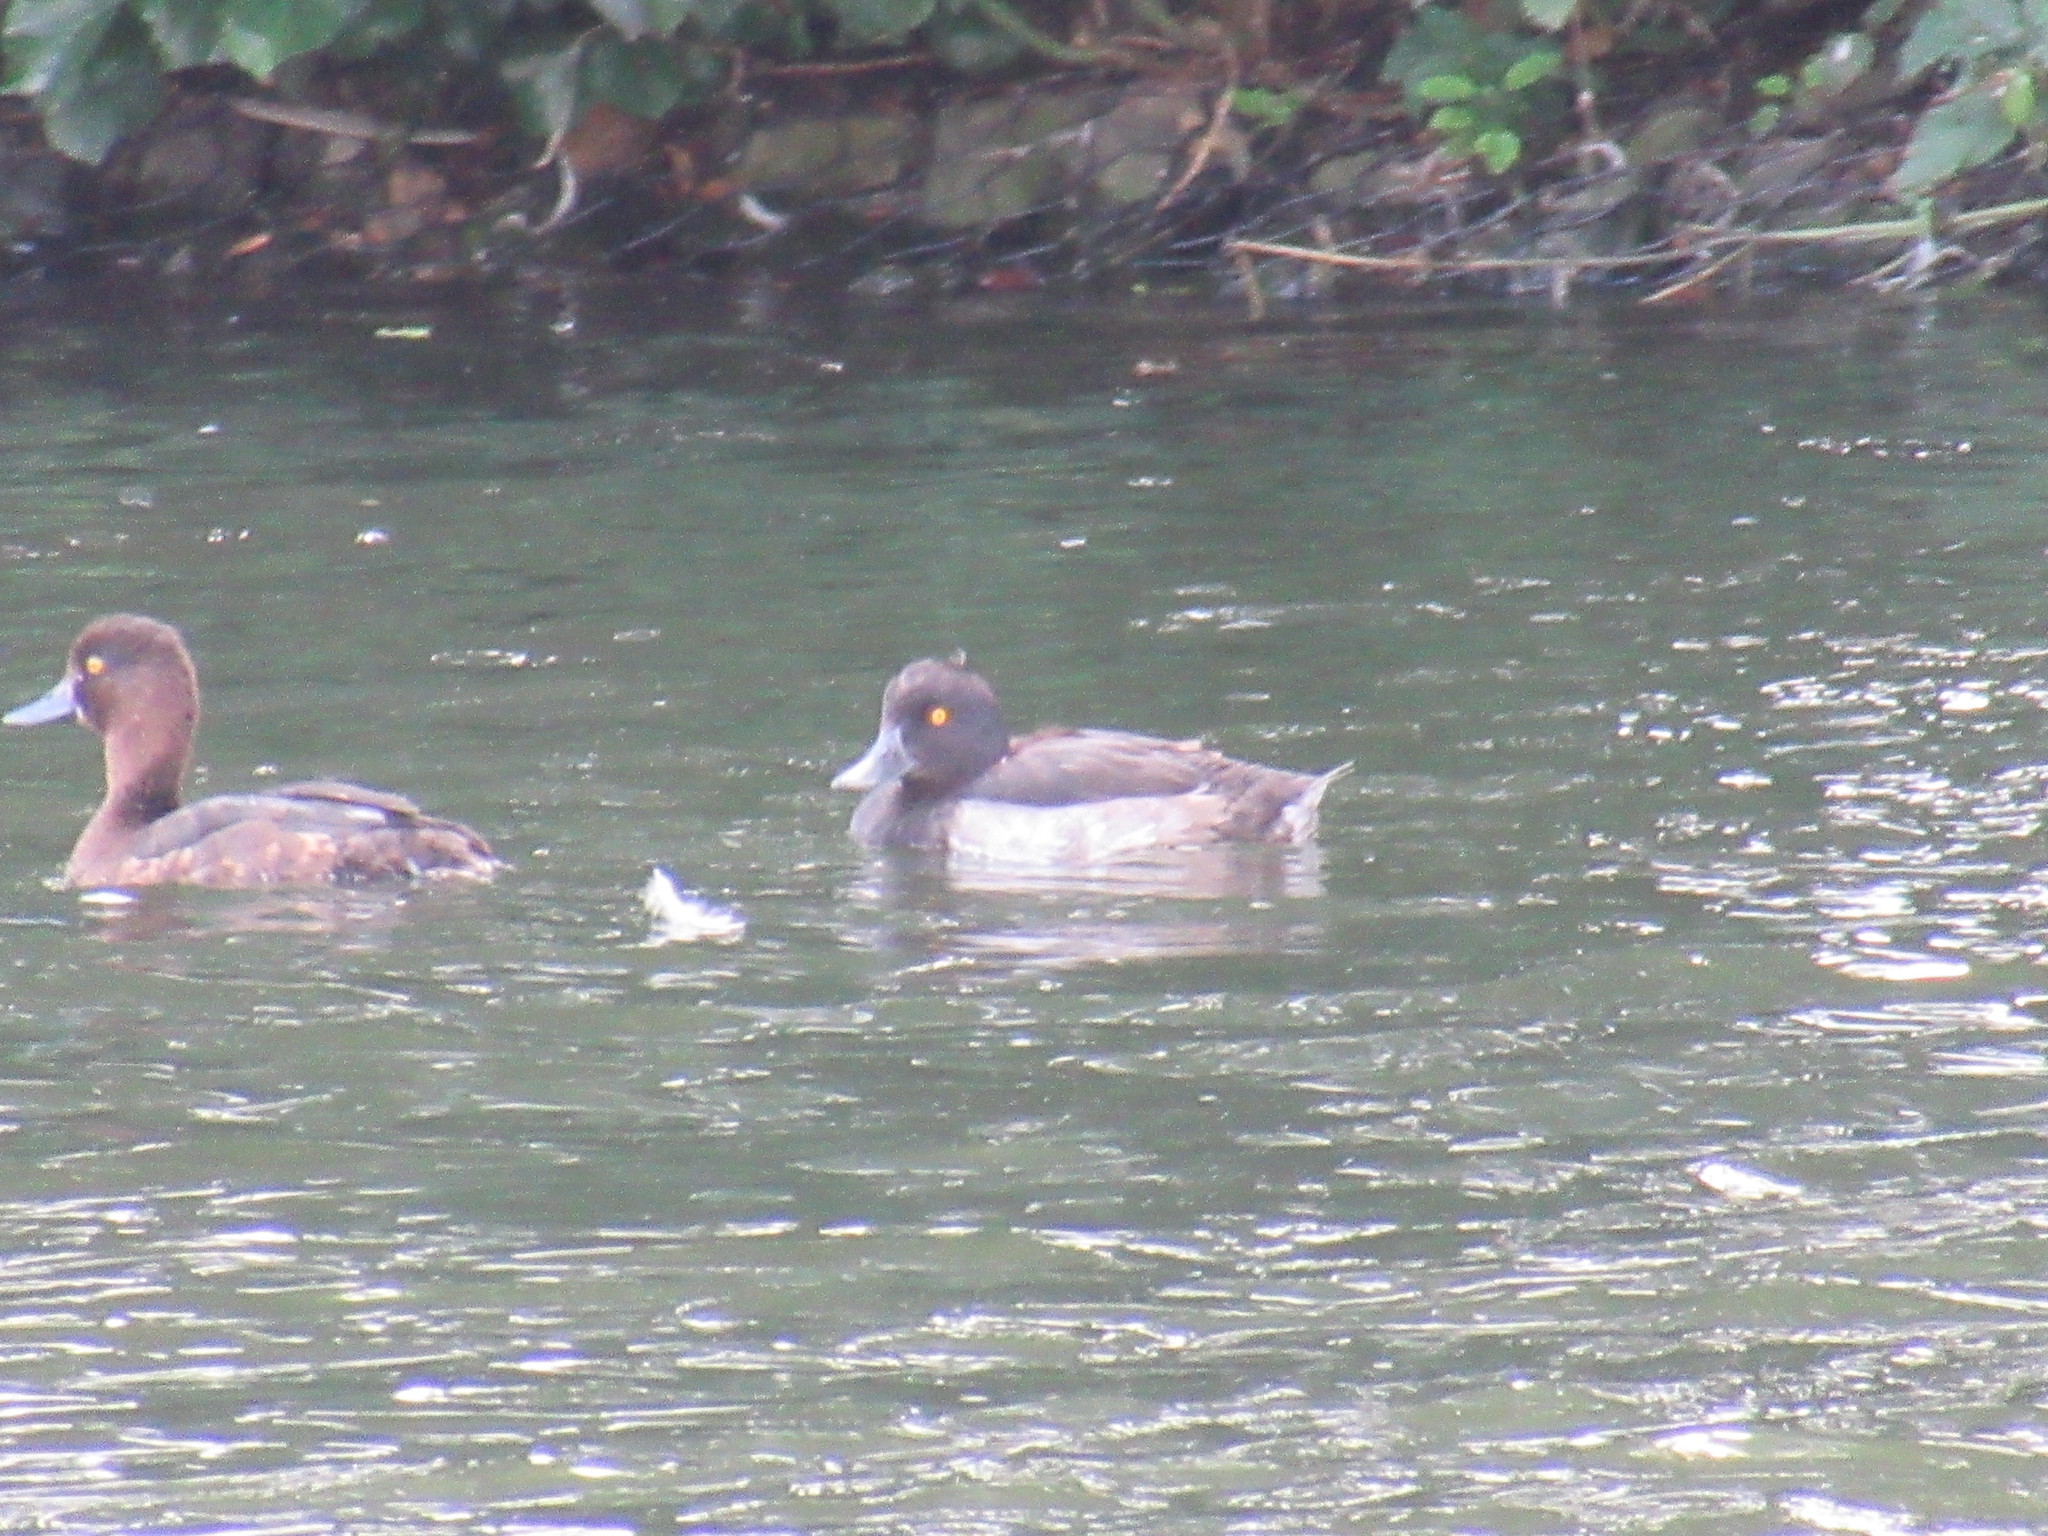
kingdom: Animalia
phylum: Chordata
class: Aves
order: Anseriformes
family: Anatidae
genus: Aythya
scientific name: Aythya fuligula
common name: Tufted duck
